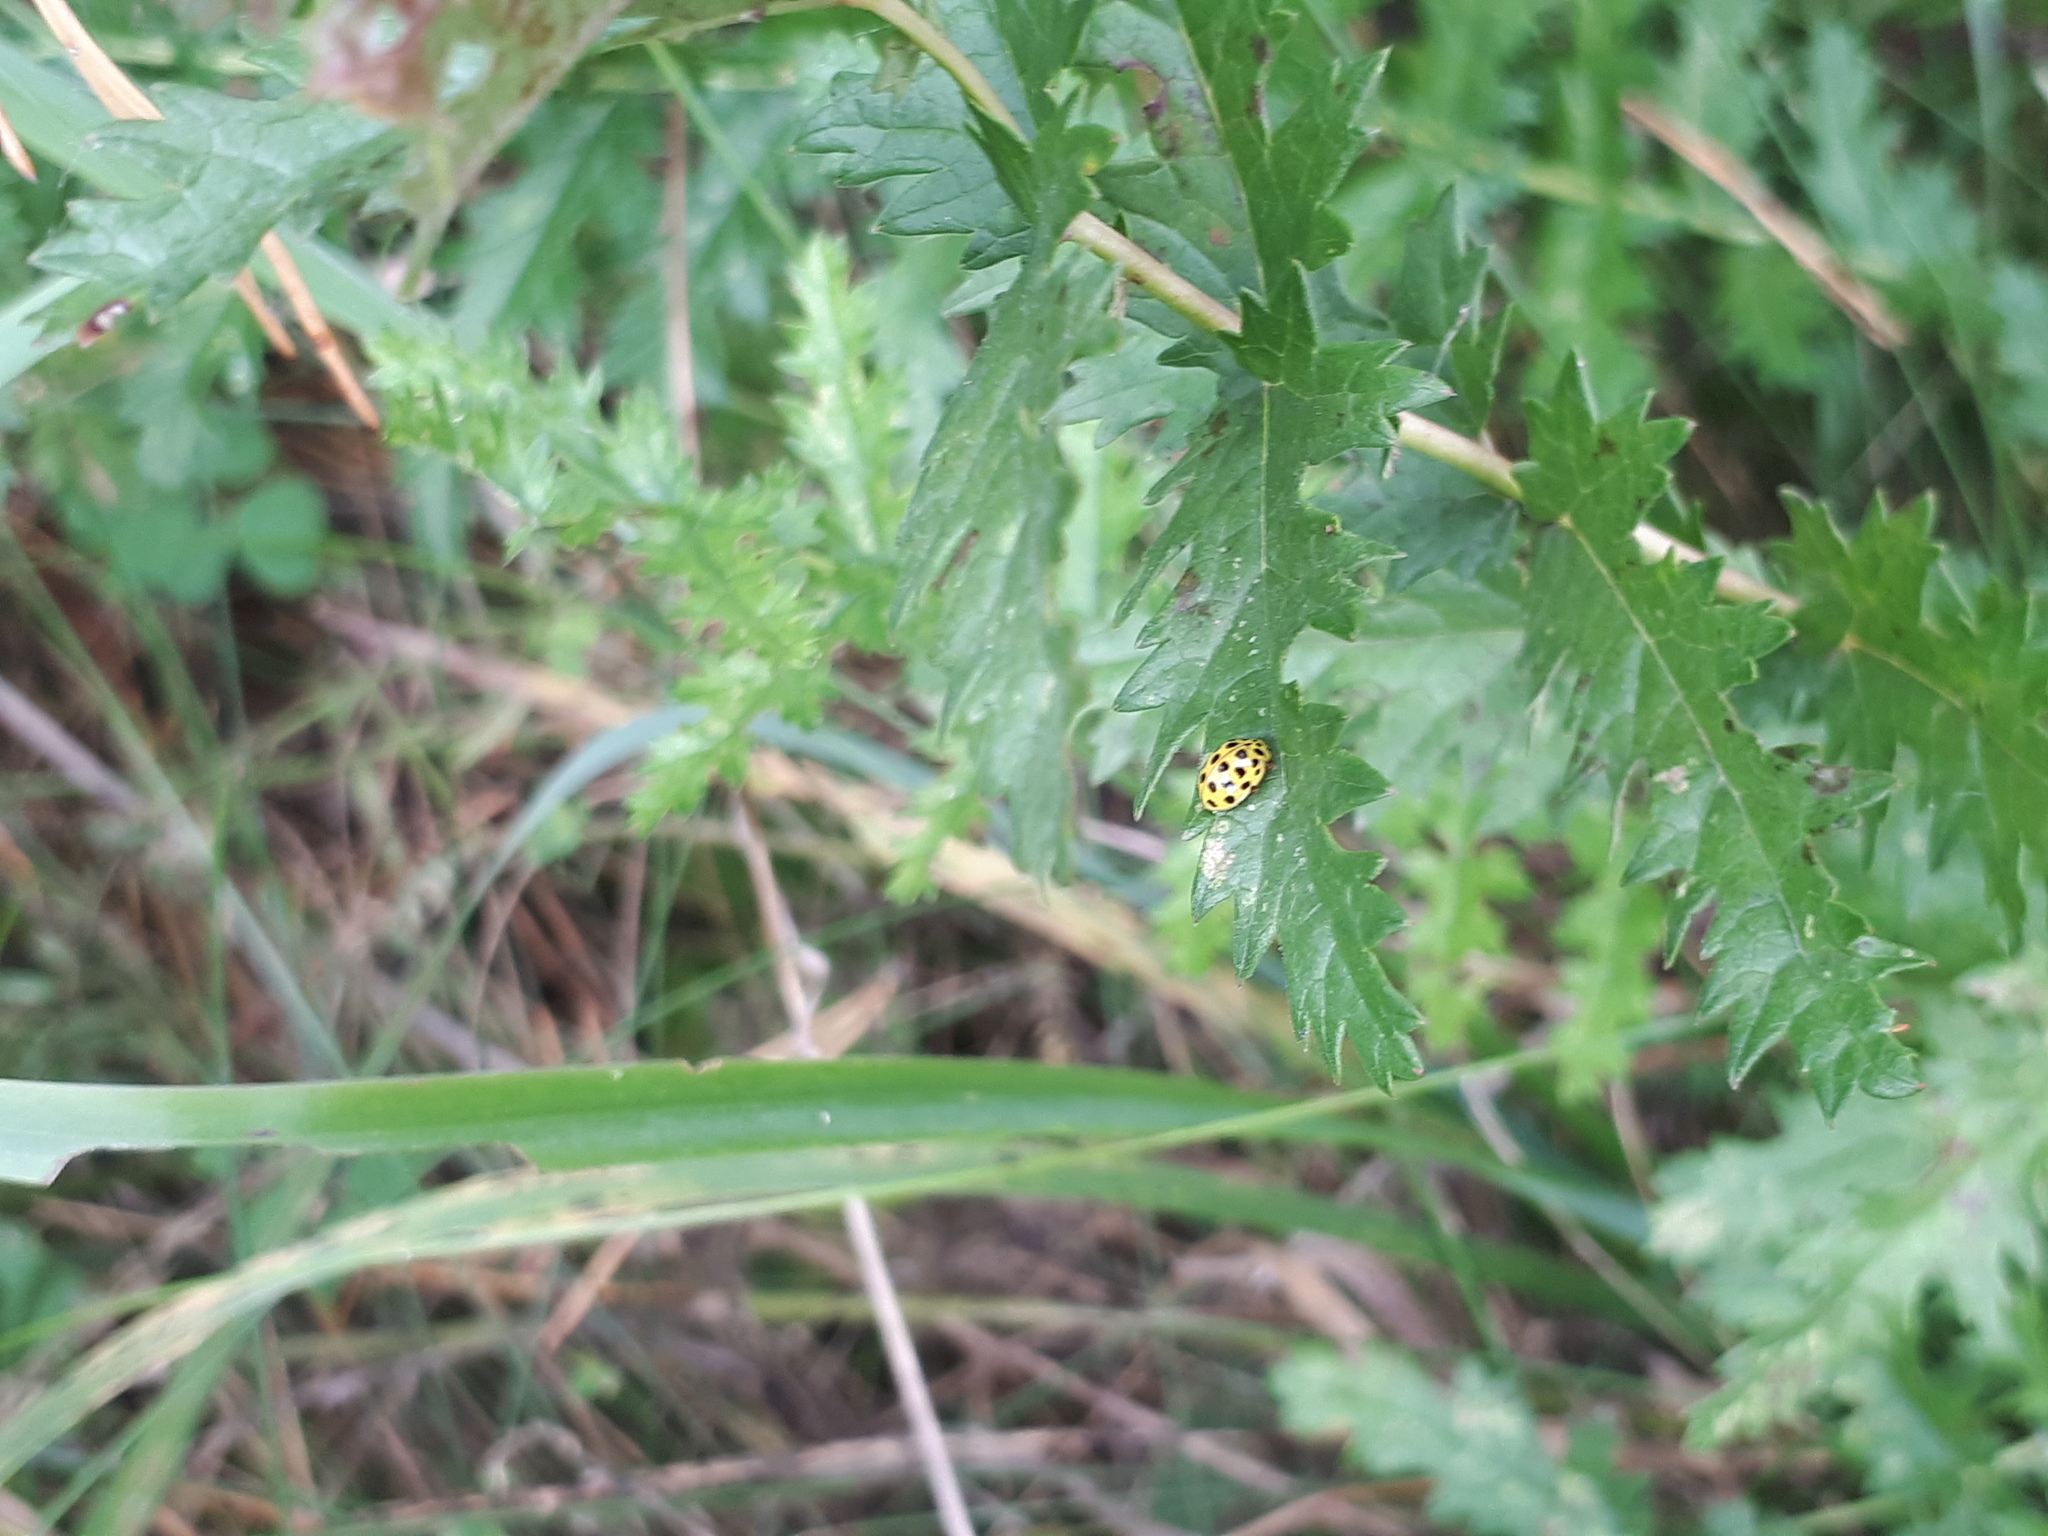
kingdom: Animalia
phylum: Arthropoda
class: Insecta
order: Coleoptera
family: Coccinellidae
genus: Psyllobora
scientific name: Psyllobora vigintiduopunctata
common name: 22-spot ladybird
